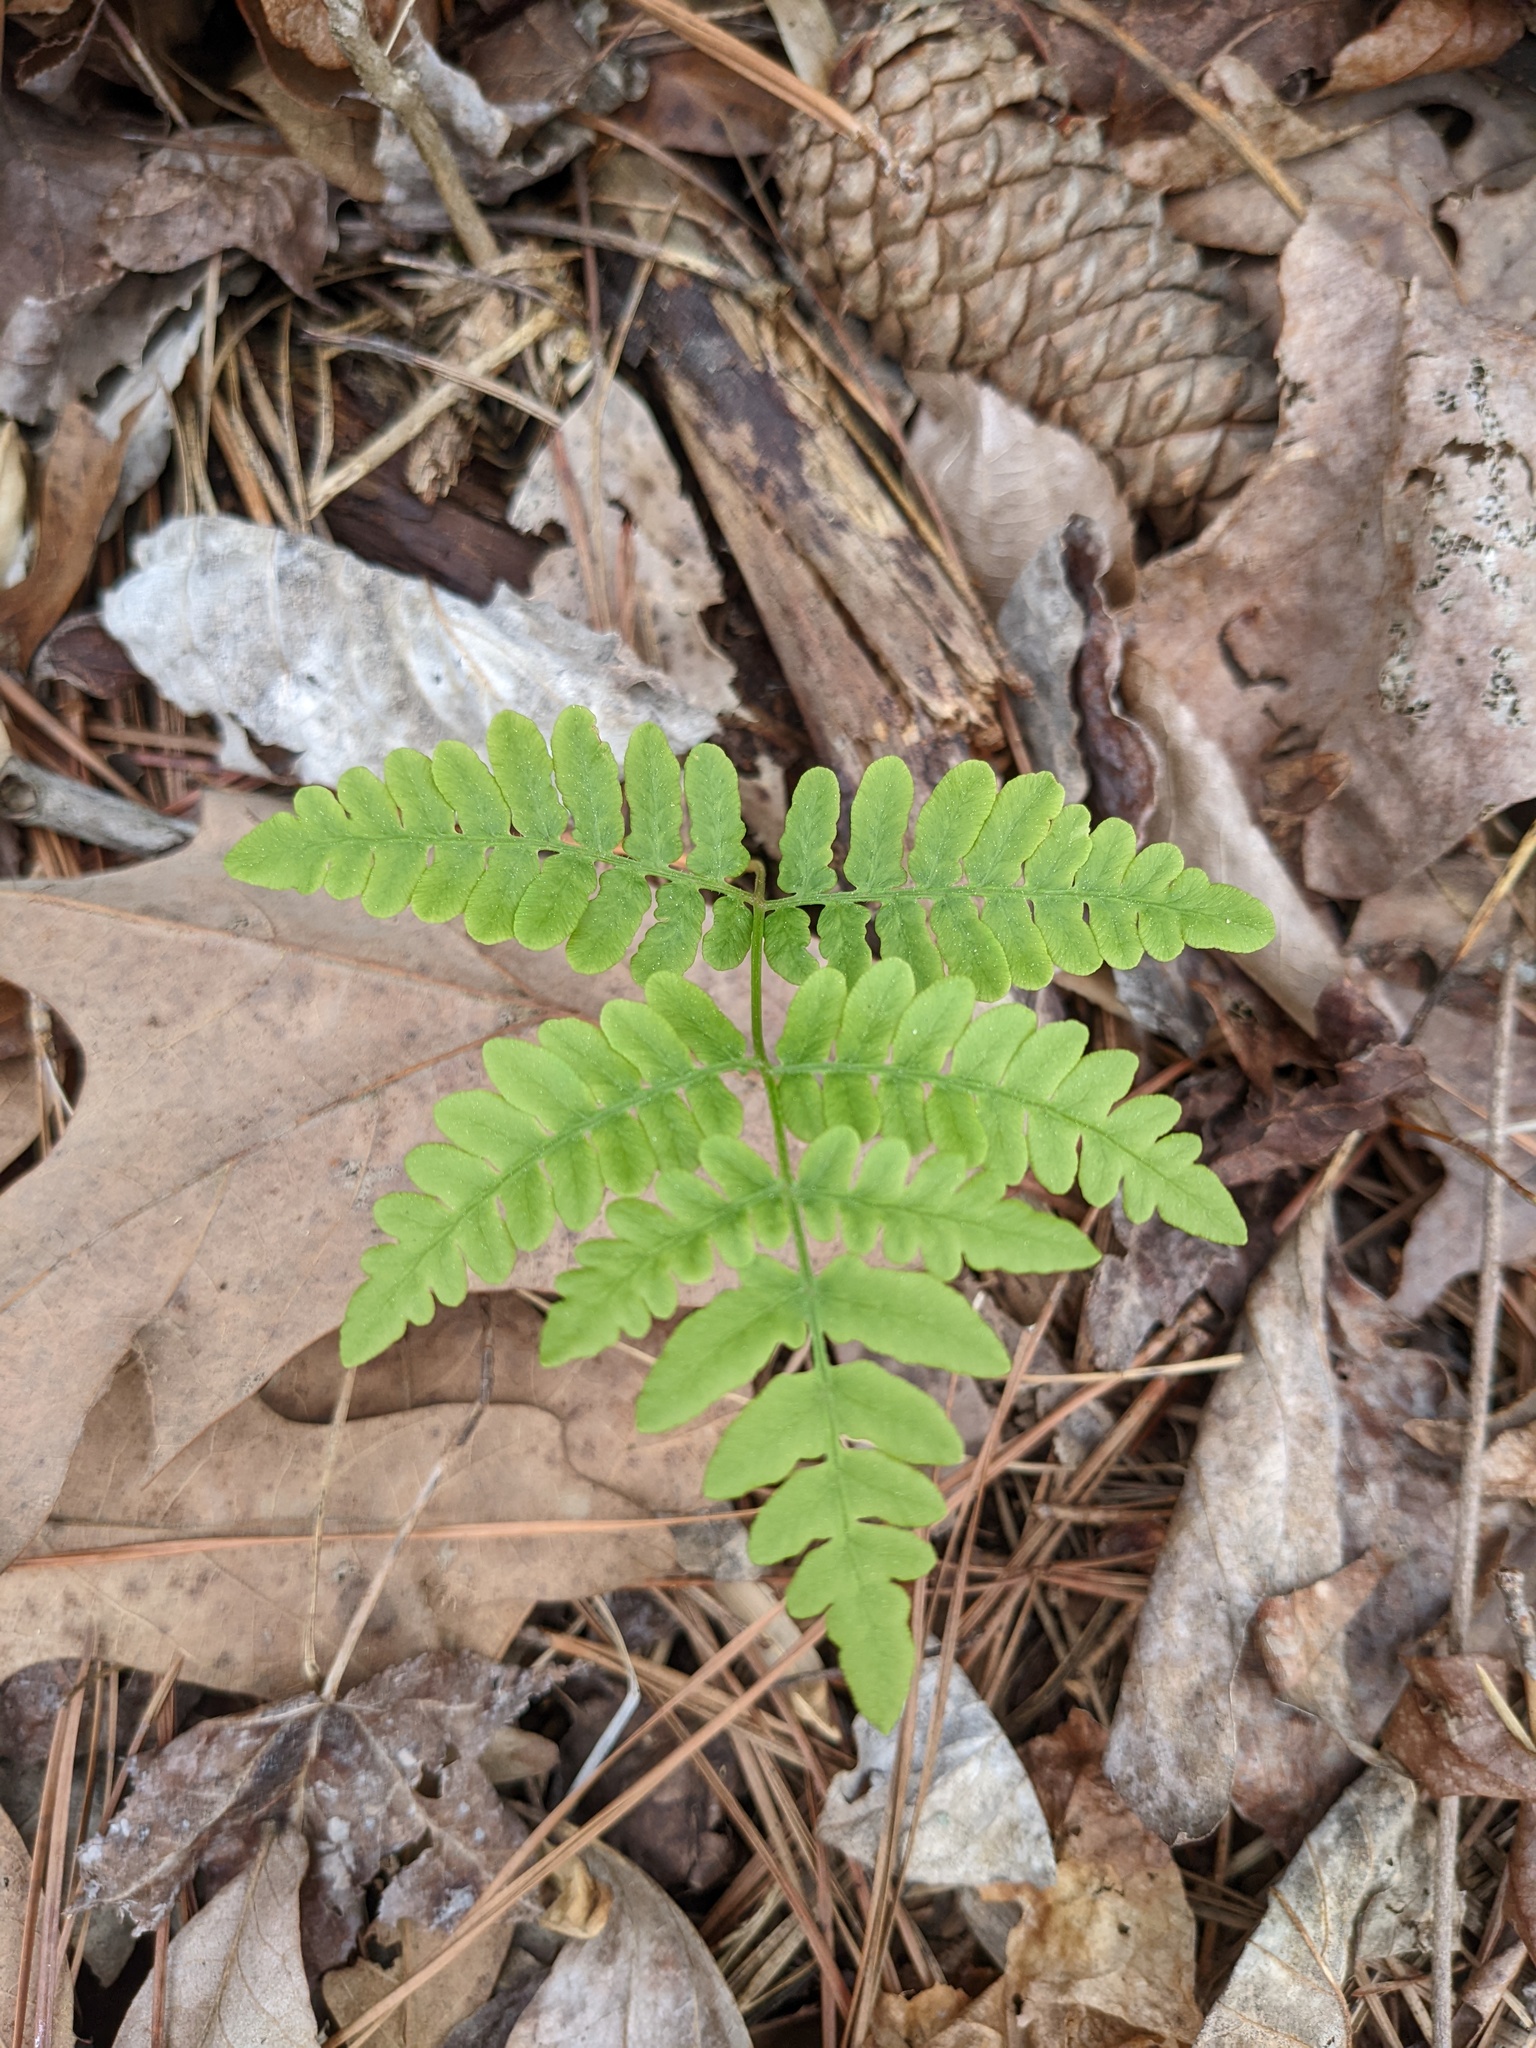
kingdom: Plantae
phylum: Tracheophyta
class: Polypodiopsida
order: Polypodiales
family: Dennstaedtiaceae
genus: Pteridium
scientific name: Pteridium aquilinum
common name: Bracken
